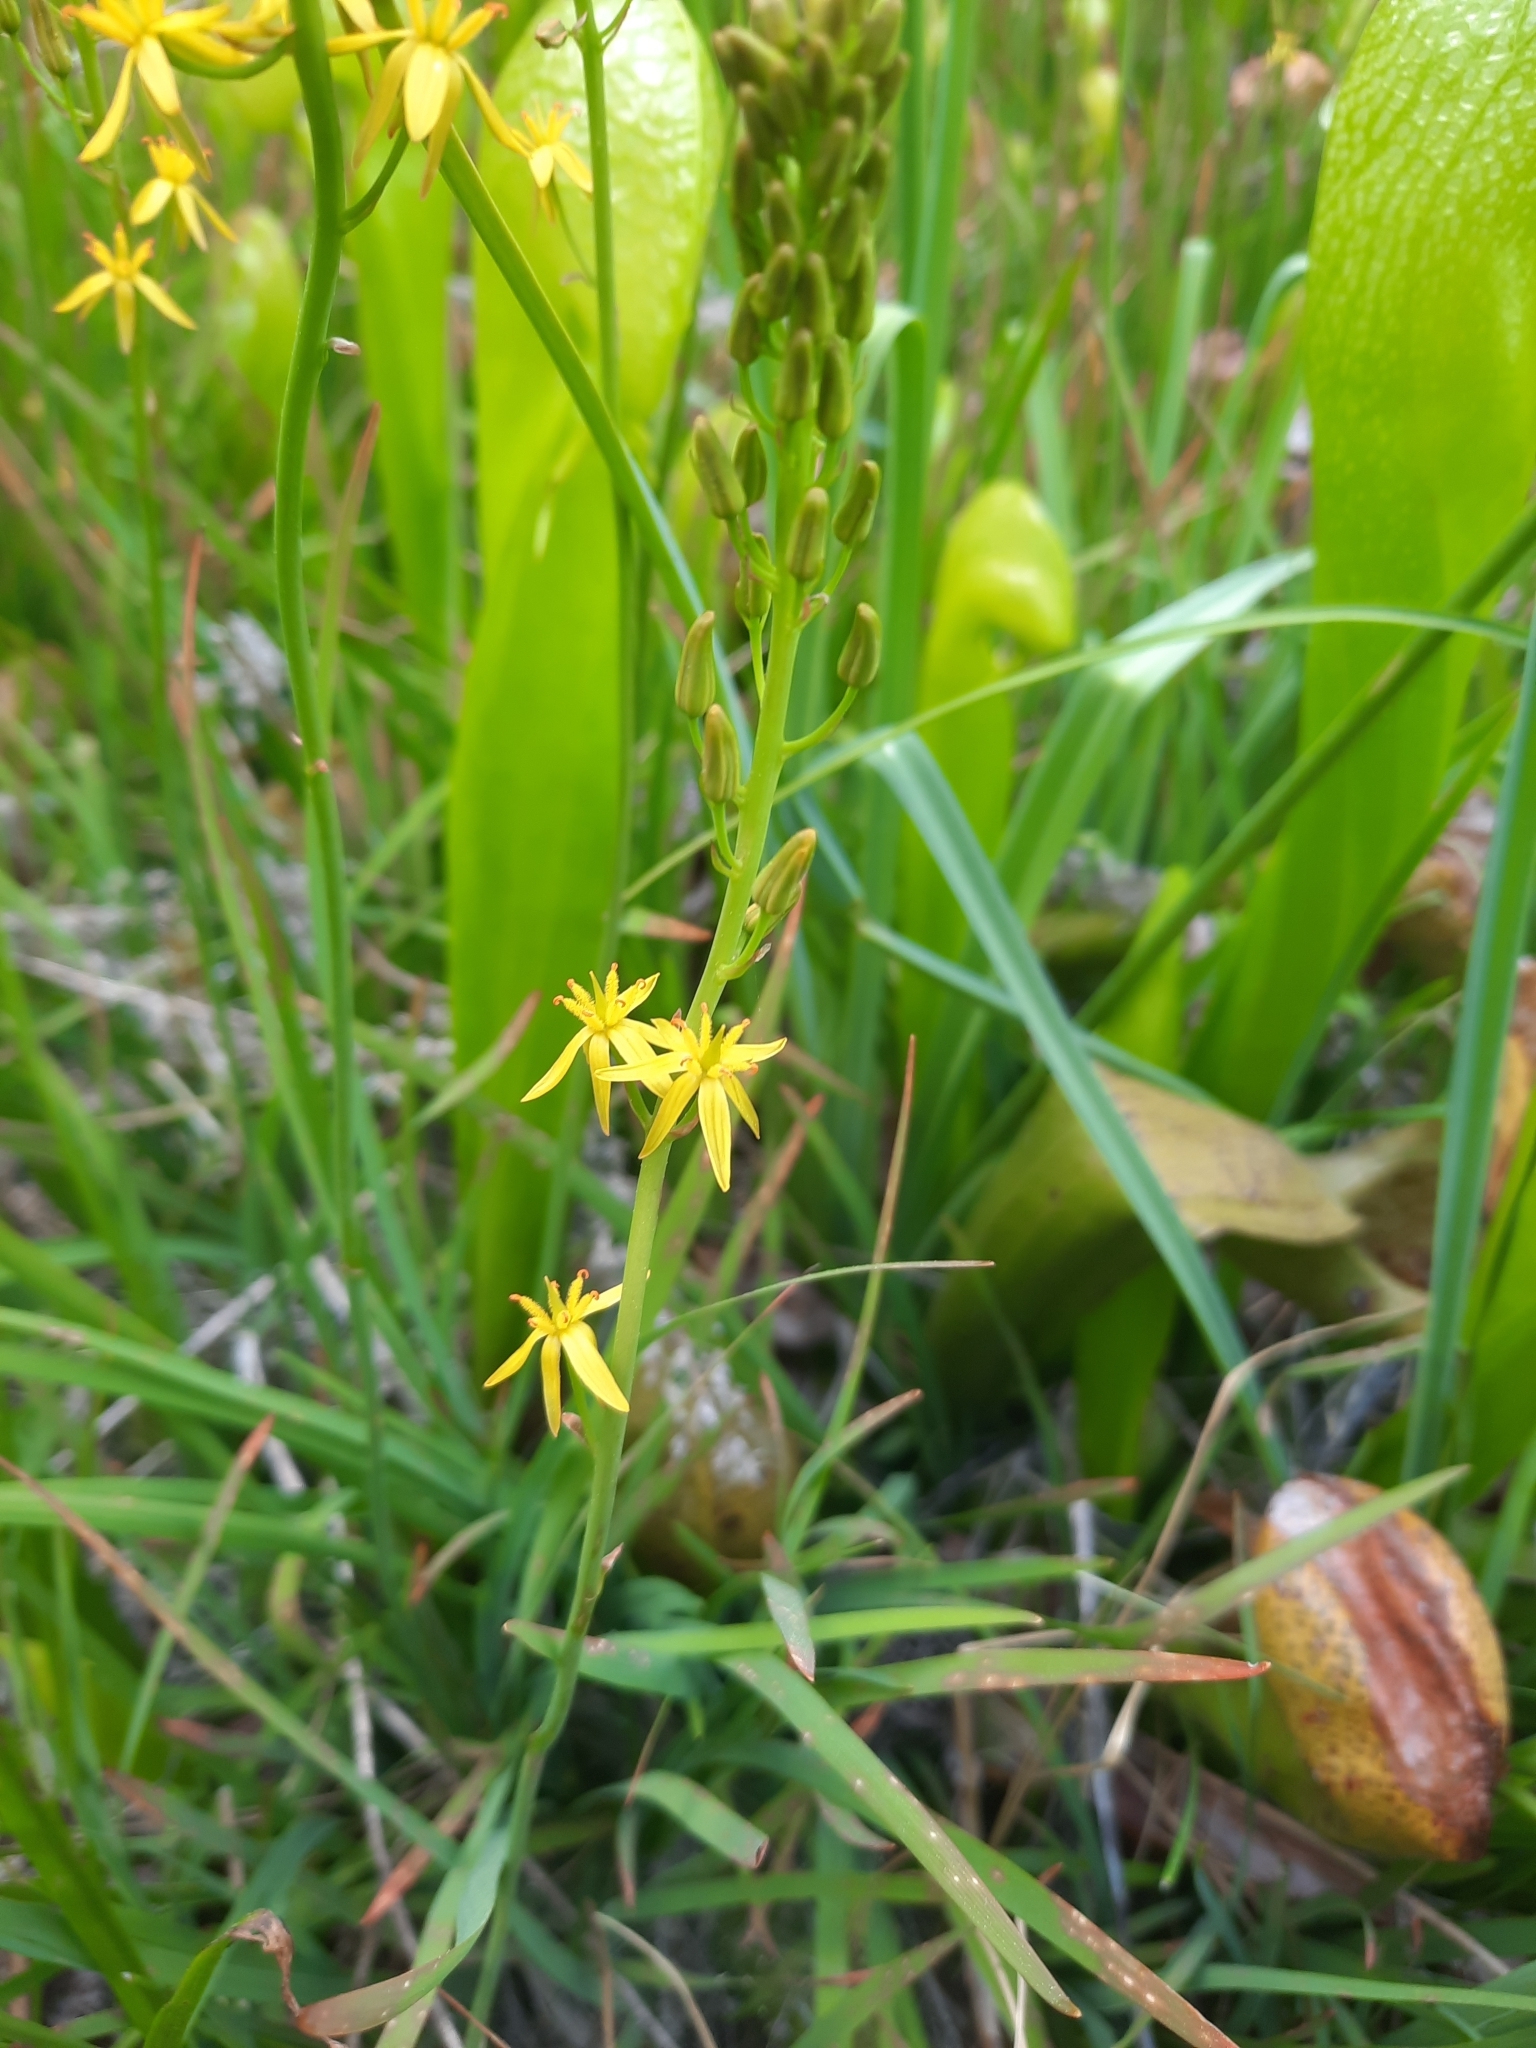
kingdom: Plantae
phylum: Tracheophyta
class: Liliopsida
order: Dioscoreales
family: Nartheciaceae
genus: Narthecium
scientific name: Narthecium californicum
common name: California bog-asphodel
